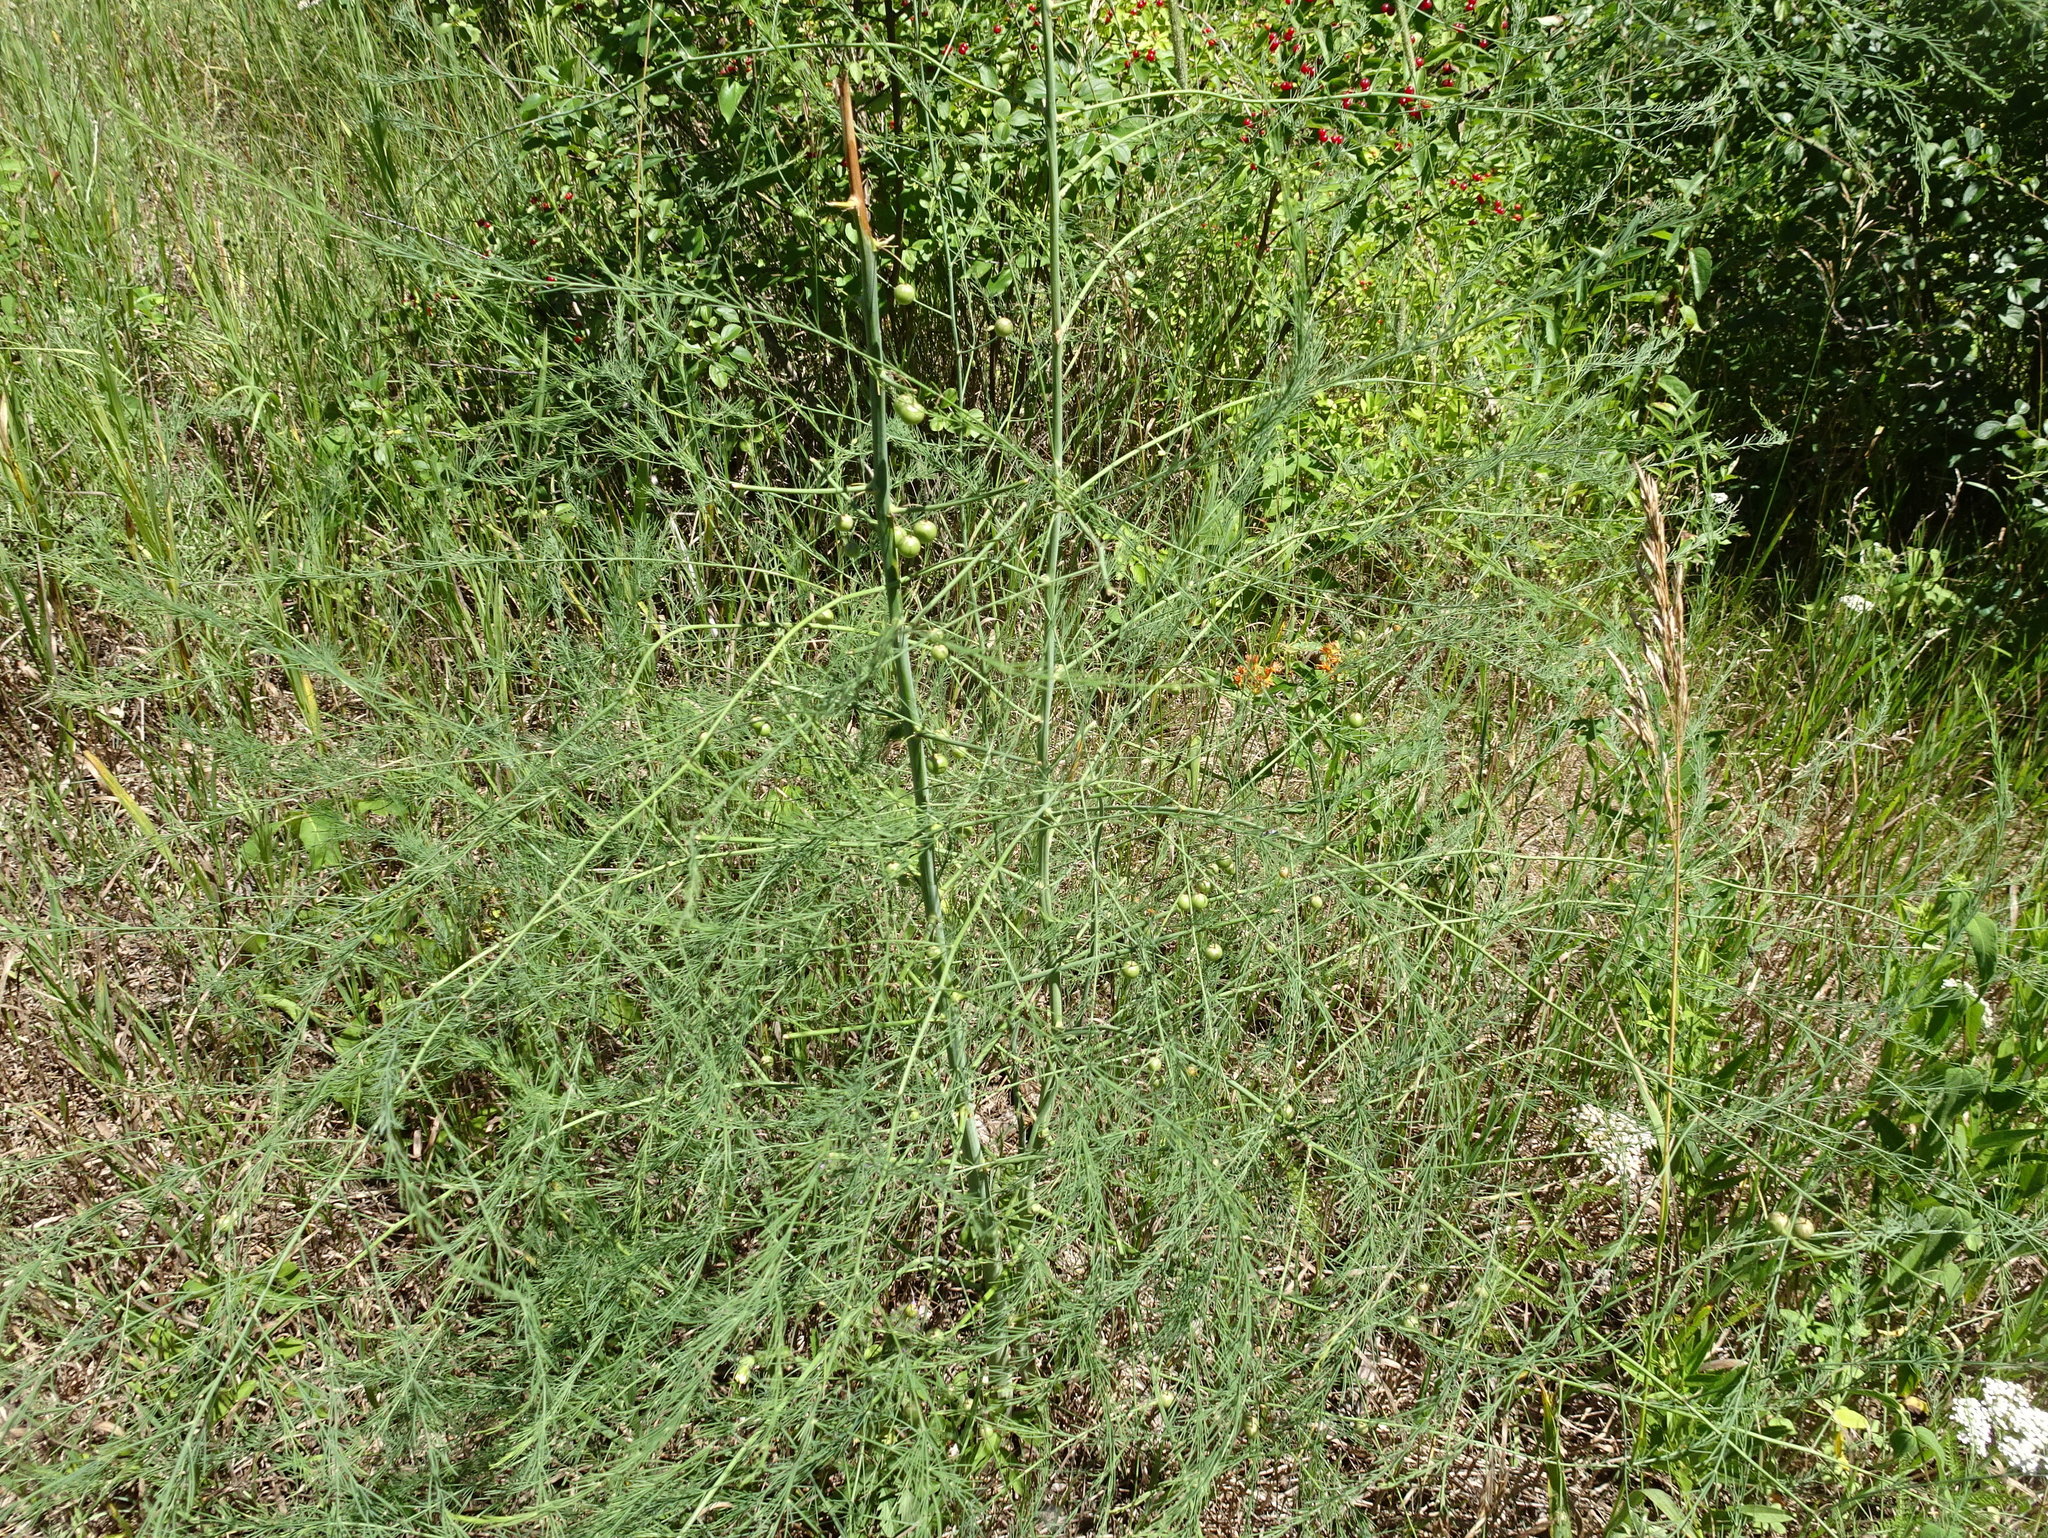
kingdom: Plantae
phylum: Tracheophyta
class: Liliopsida
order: Asparagales
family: Asparagaceae
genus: Asparagus
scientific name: Asparagus officinalis
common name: Garden asparagus
